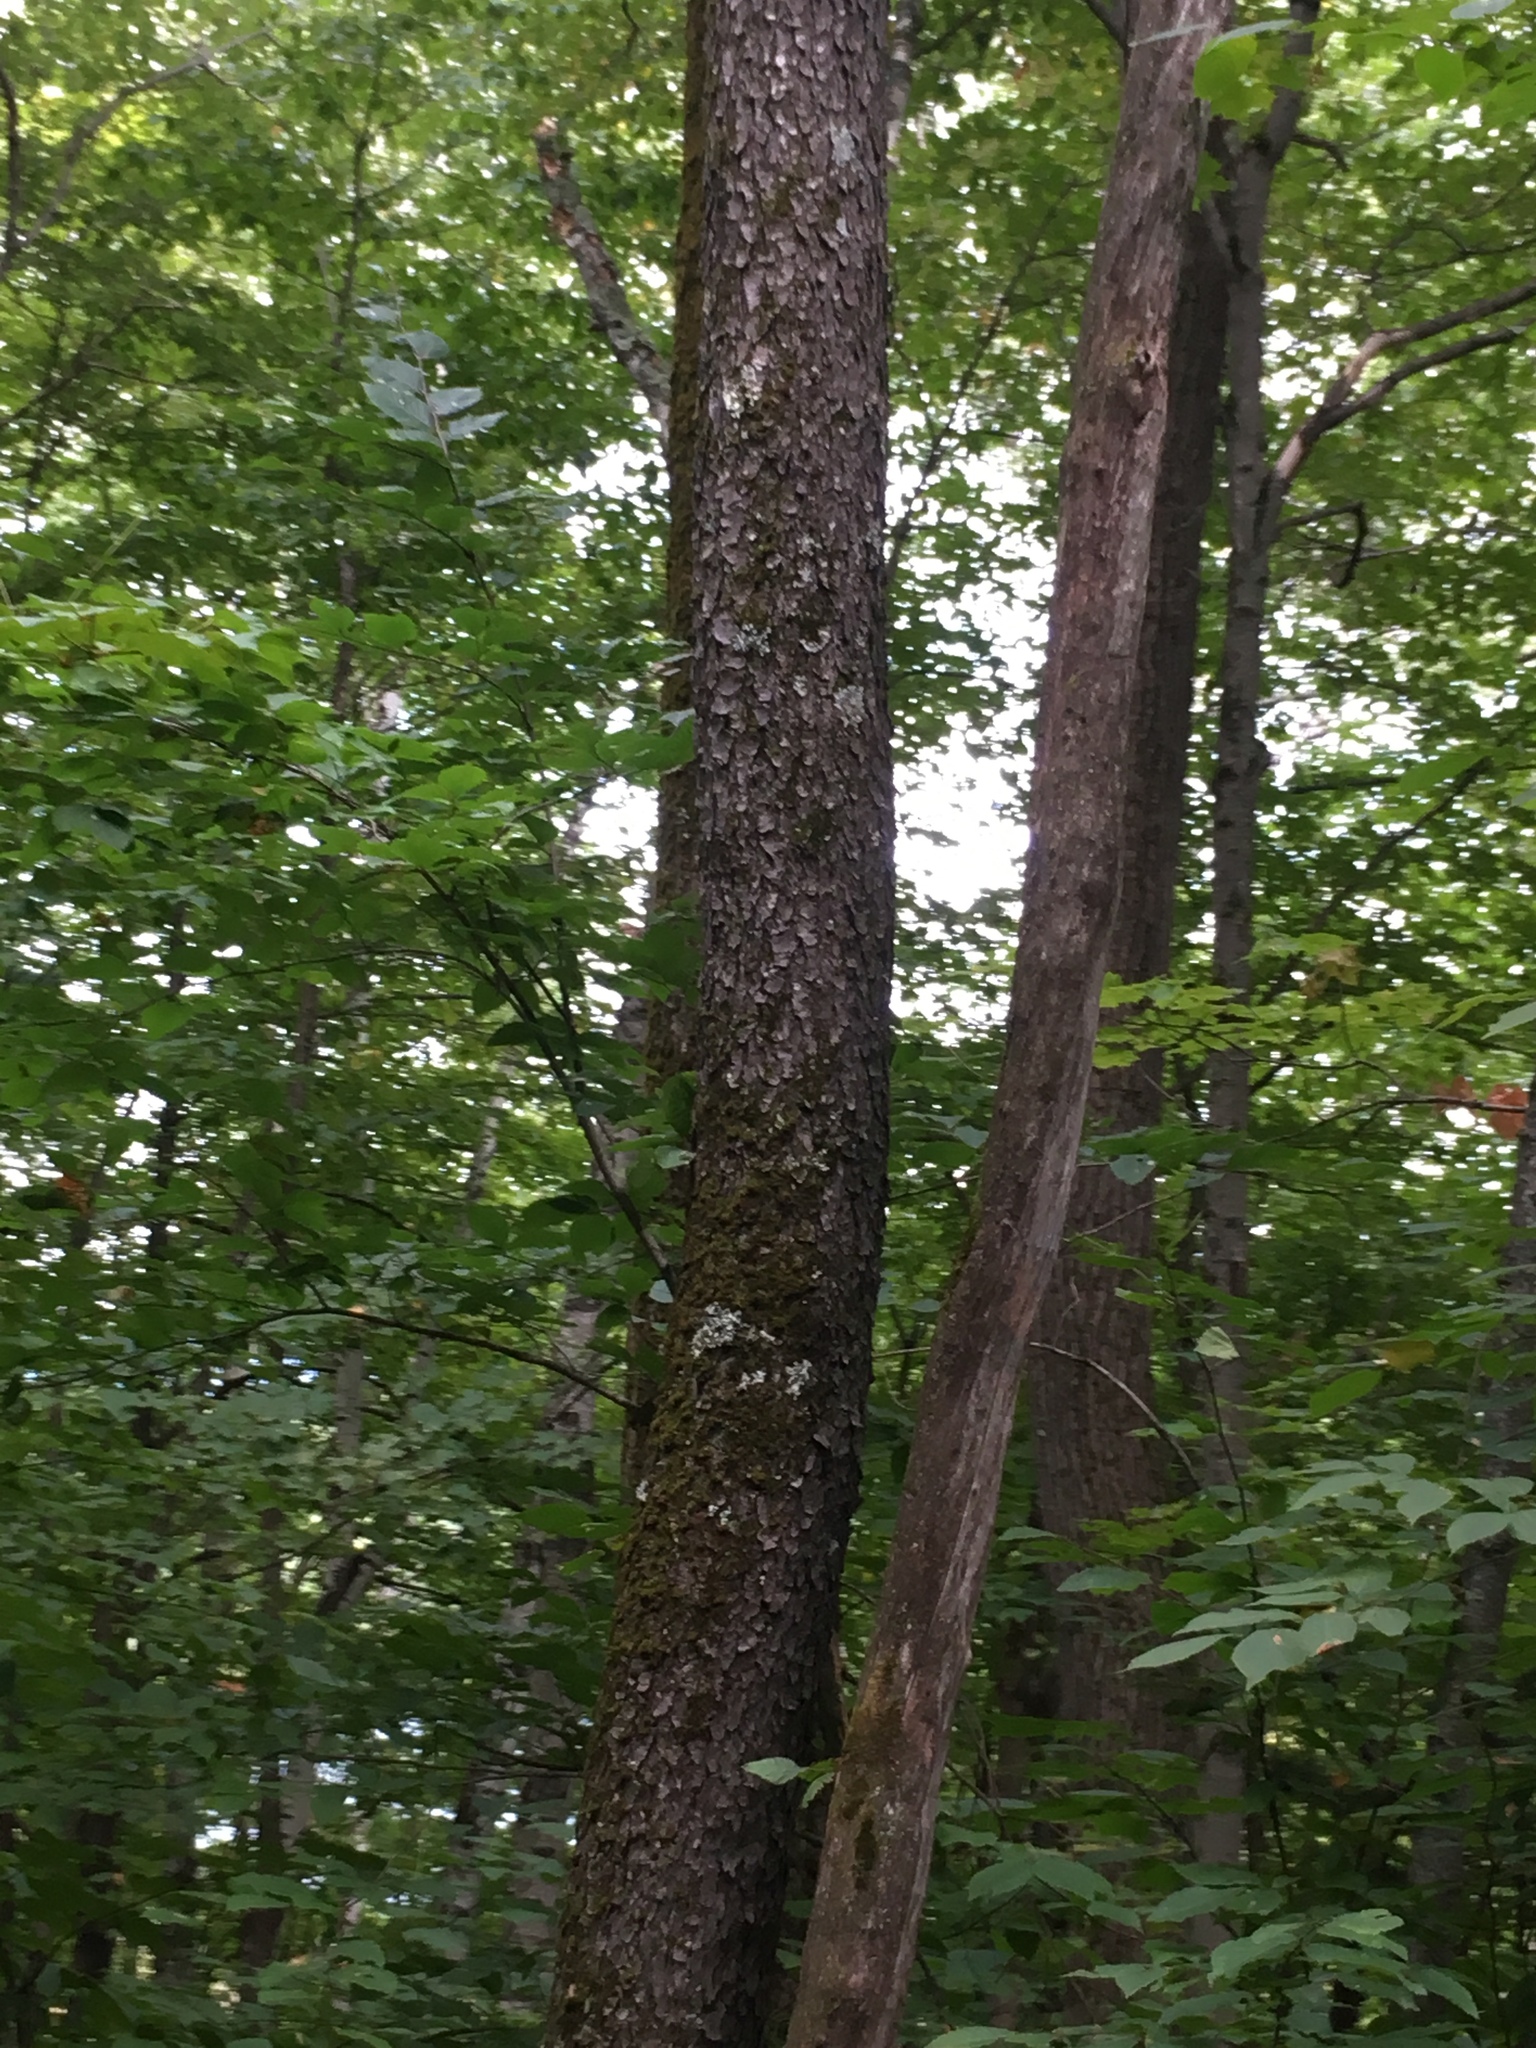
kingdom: Plantae
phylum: Tracheophyta
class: Magnoliopsida
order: Rosales
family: Rosaceae
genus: Prunus
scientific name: Prunus serotina
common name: Black cherry
